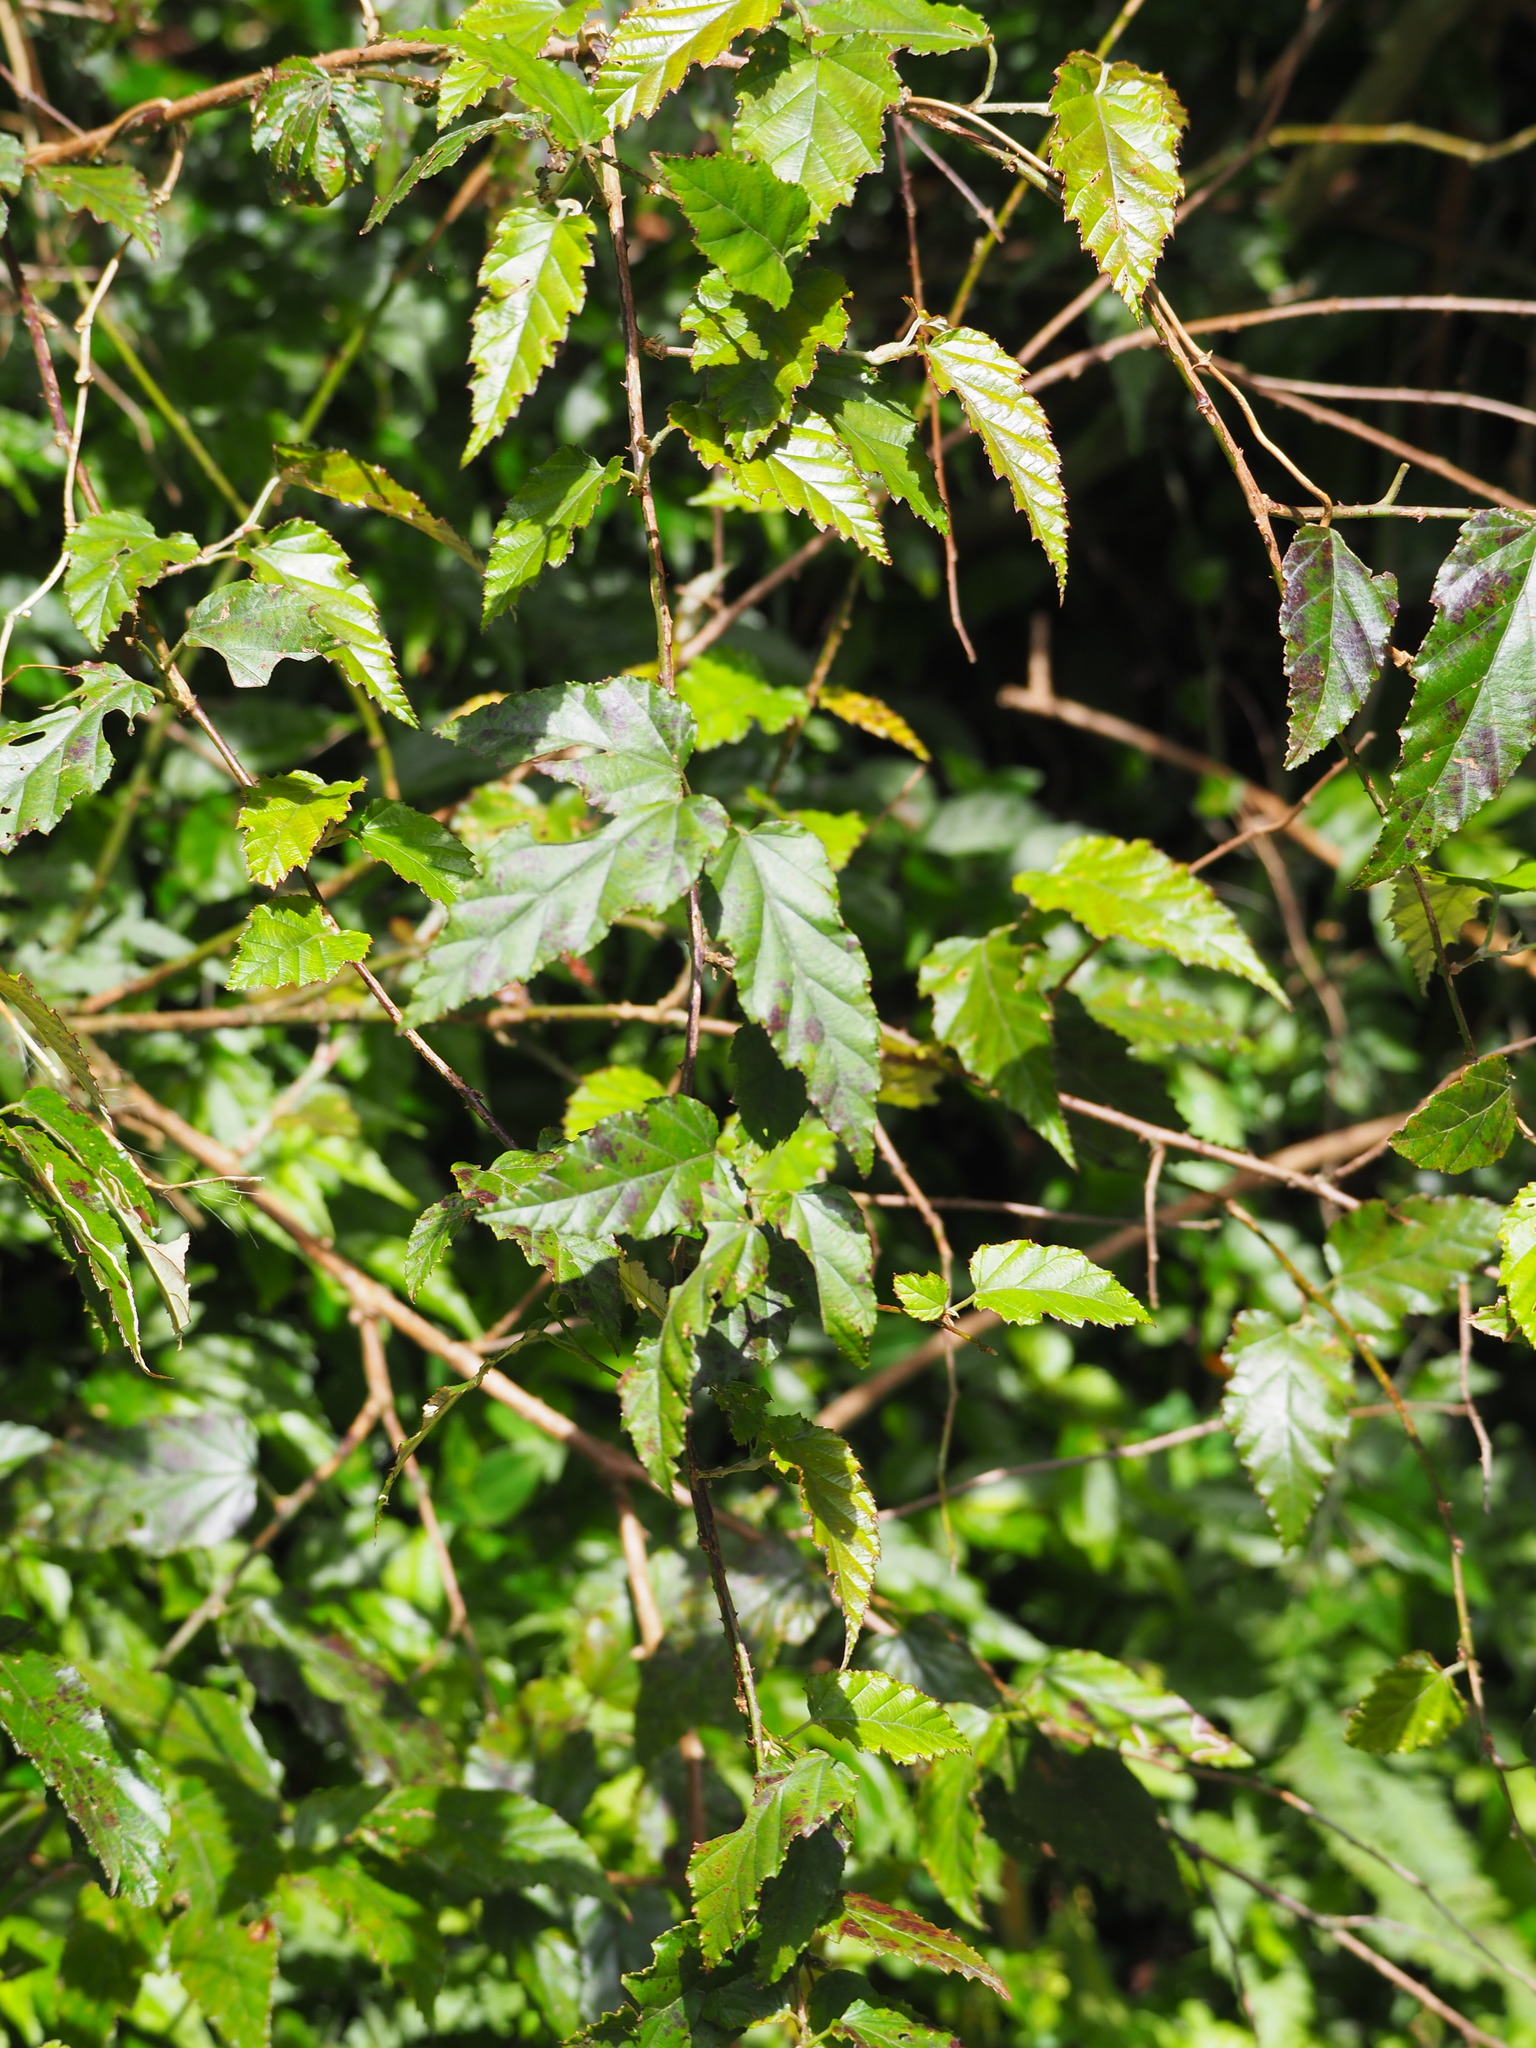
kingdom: Plantae
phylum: Tracheophyta
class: Magnoliopsida
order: Rosales
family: Rosaceae
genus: Rubus
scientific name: Rubus swinhoei
